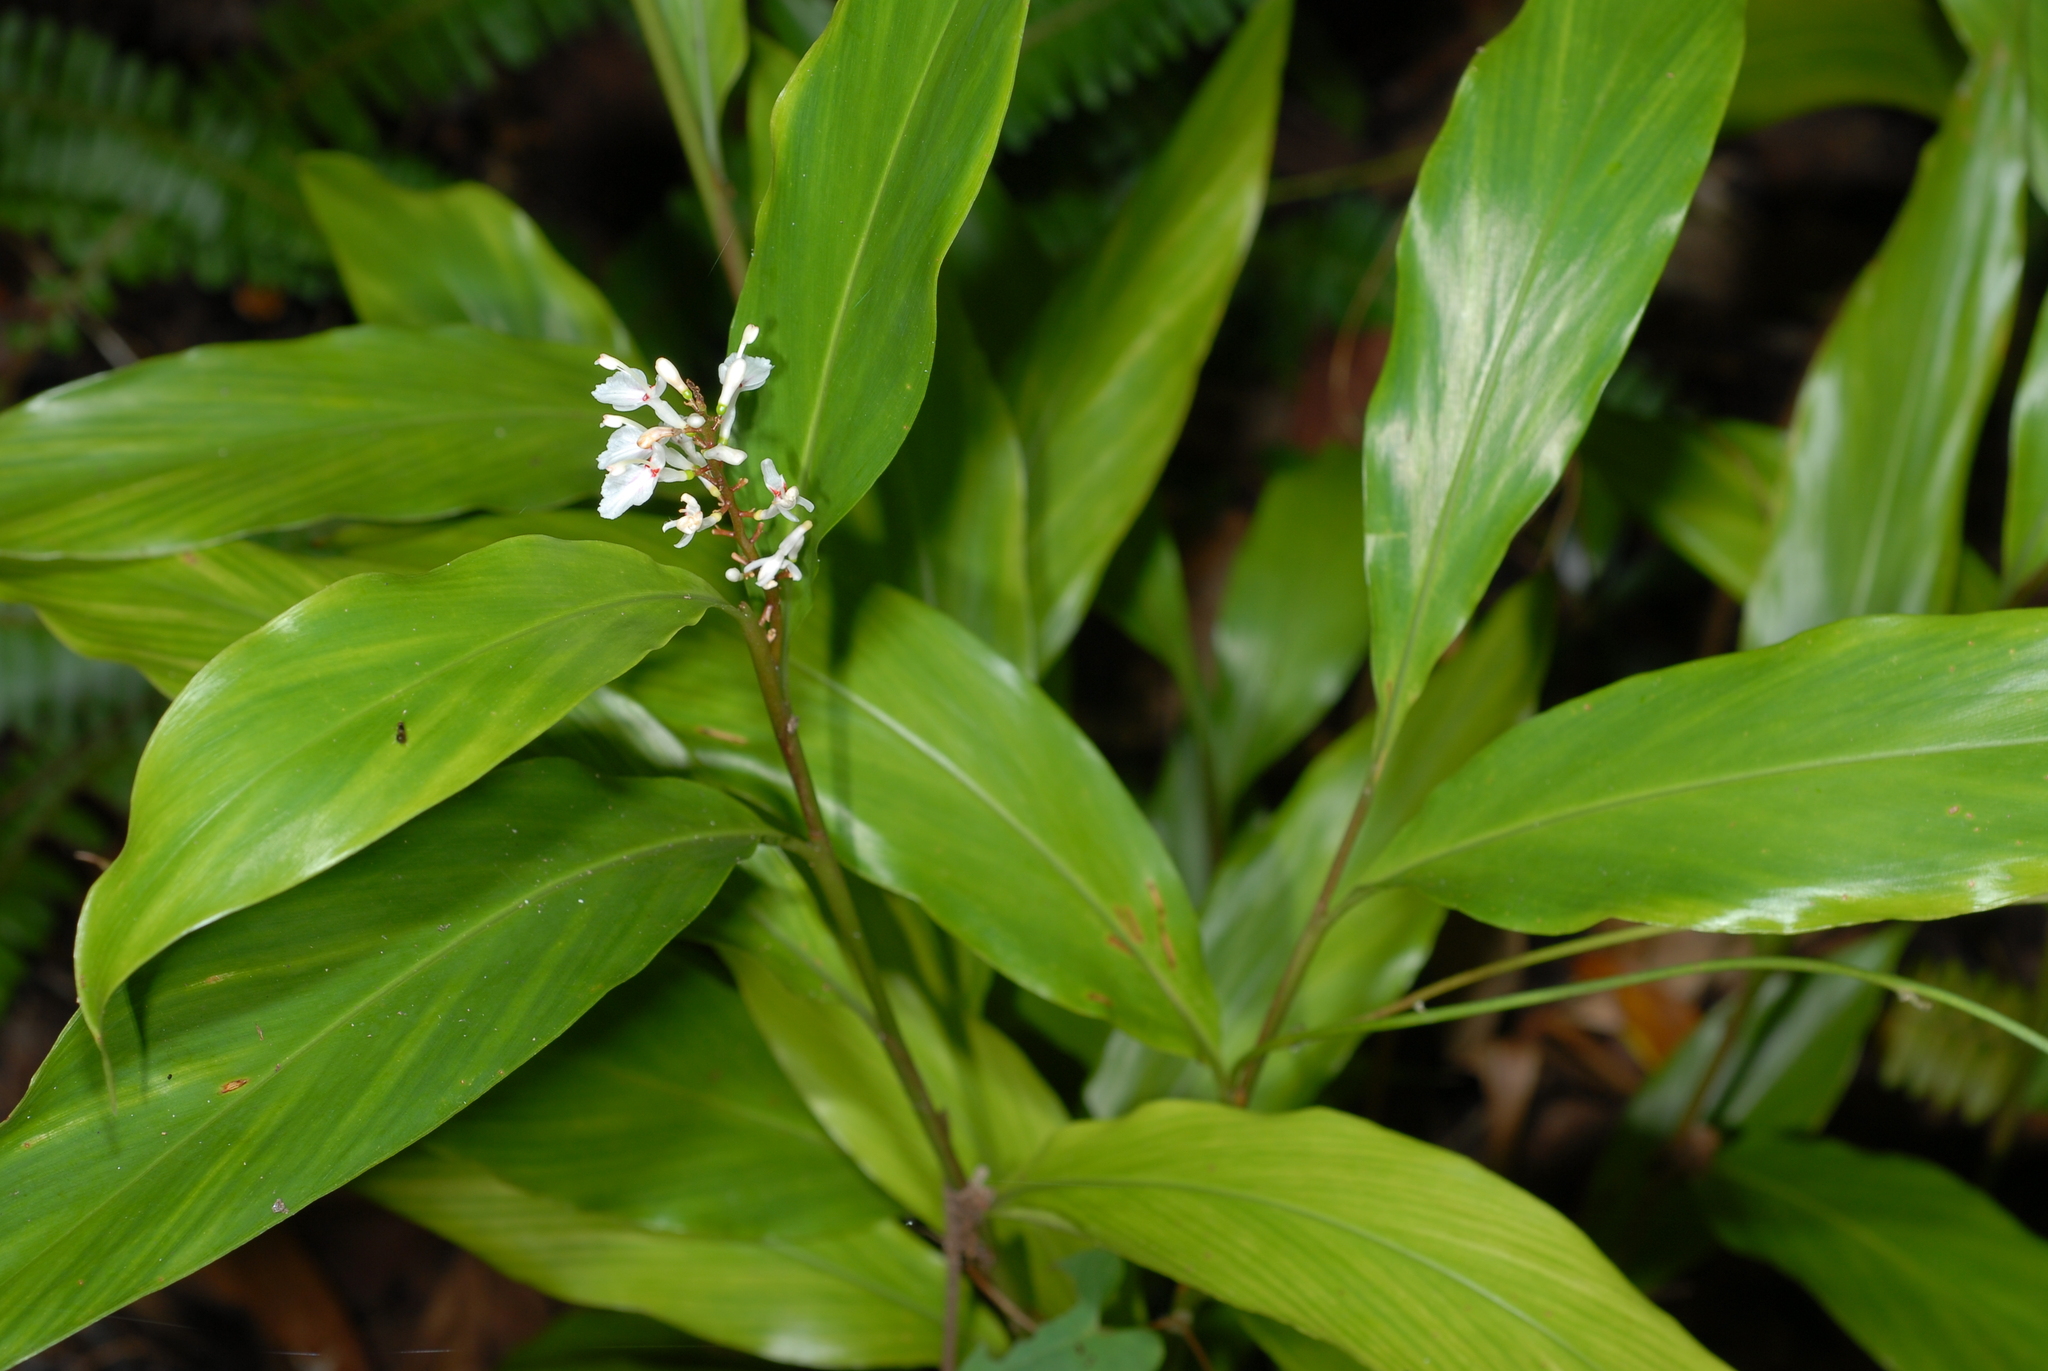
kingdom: Plantae
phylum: Tracheophyta
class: Liliopsida
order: Zingiberales
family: Zingiberaceae
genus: Alpinia
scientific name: Alpinia intermedia
